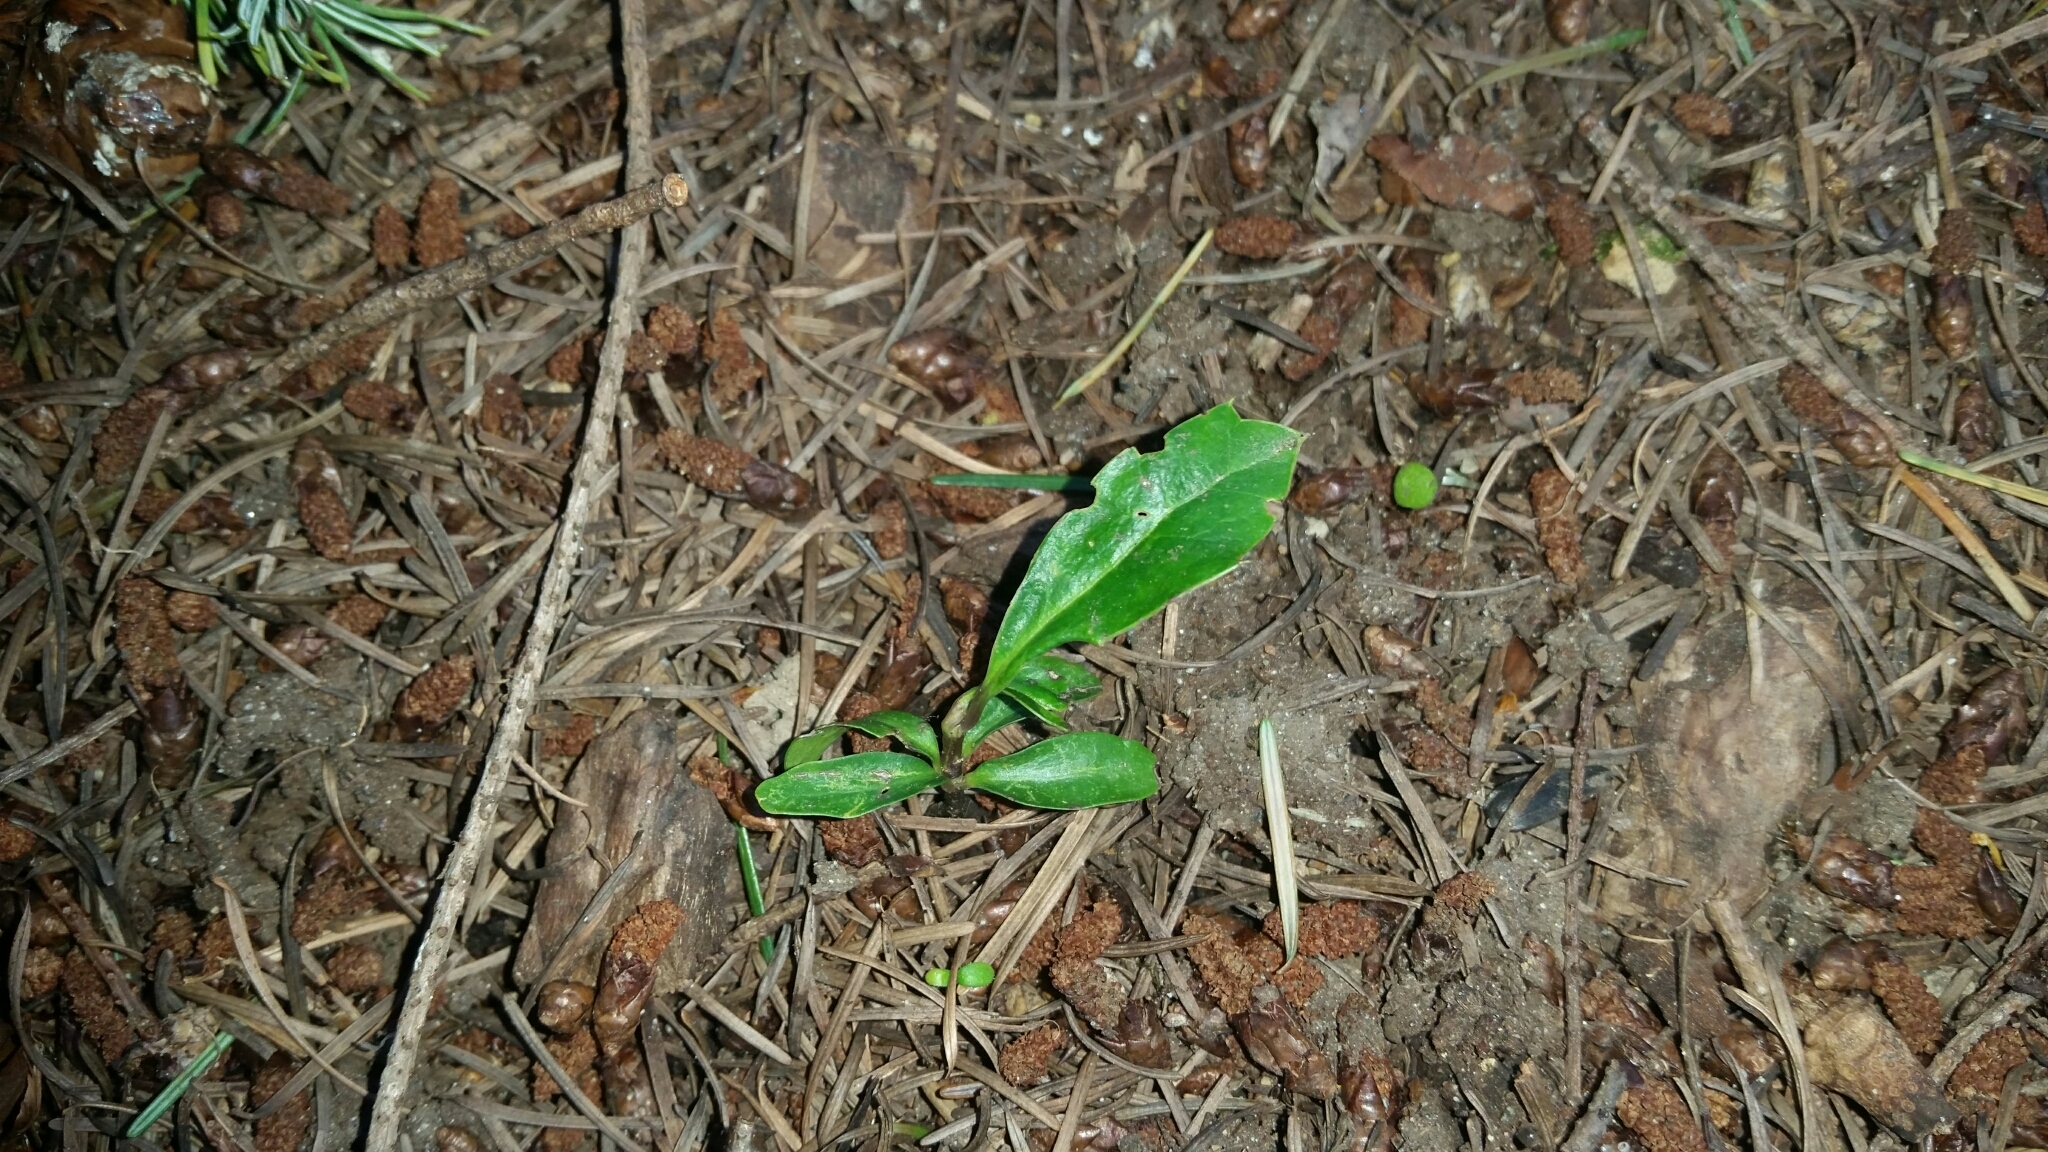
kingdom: Plantae
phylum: Tracheophyta
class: Magnoliopsida
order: Aquifoliales
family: Aquifoliaceae
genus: Ilex
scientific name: Ilex aquifolium
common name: English holly
